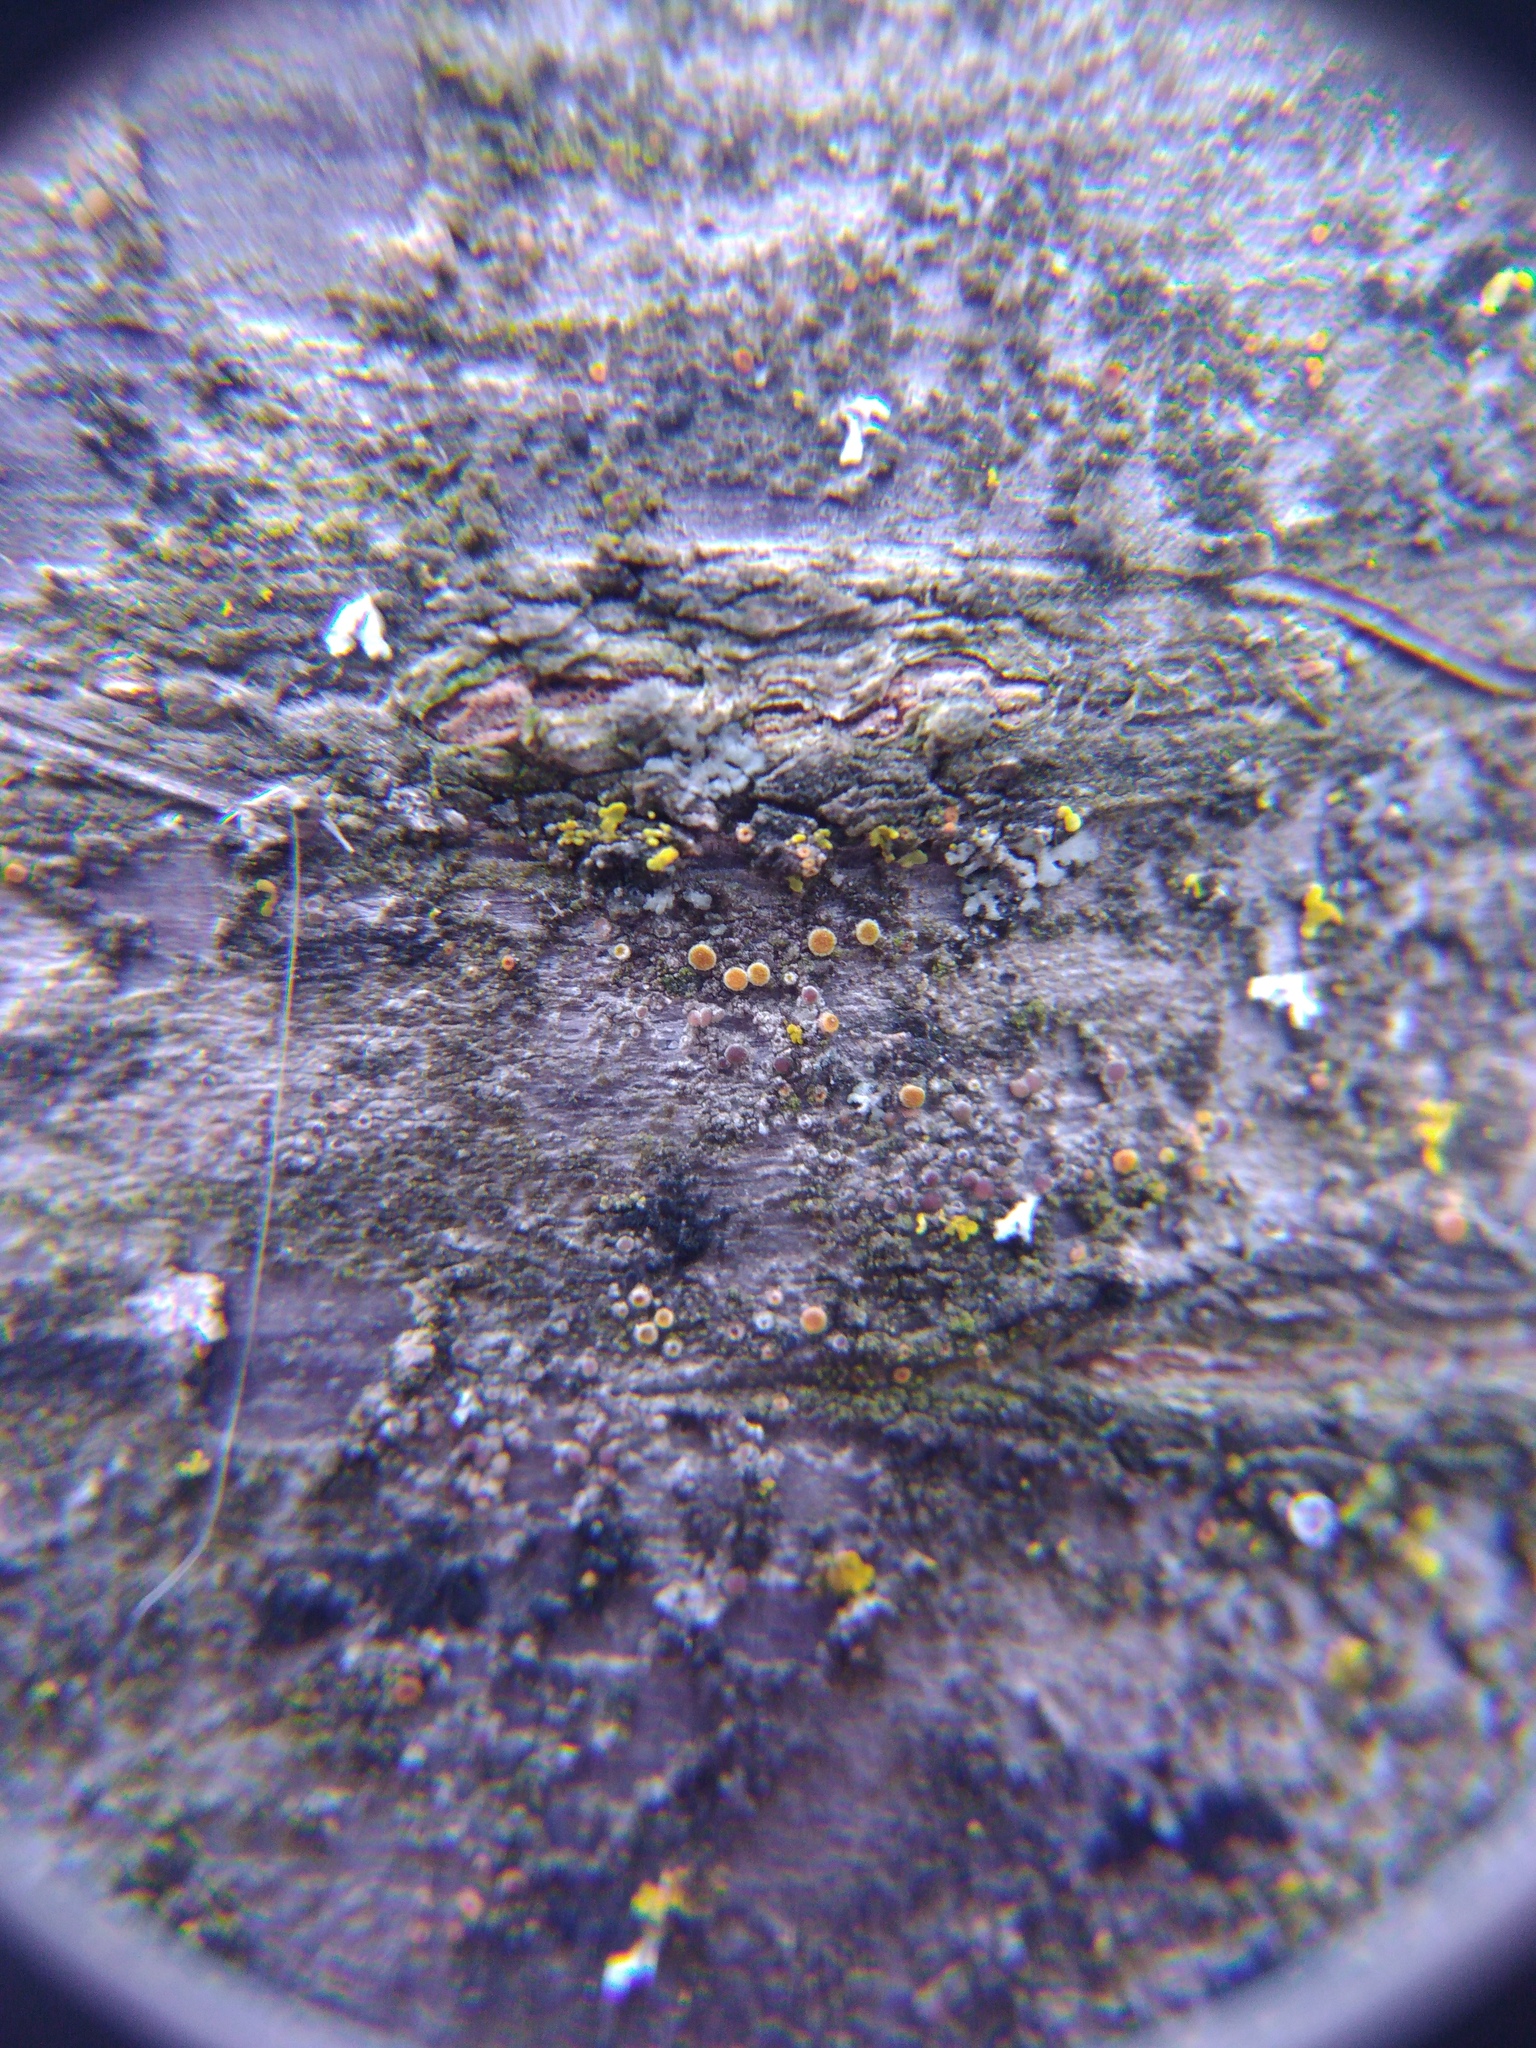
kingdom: Fungi
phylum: Ascomycota
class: Lecanoromycetes
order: Teloschistales
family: Teloschistaceae
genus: Athallia
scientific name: Athallia pyracea
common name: Flaming firedot lichen
